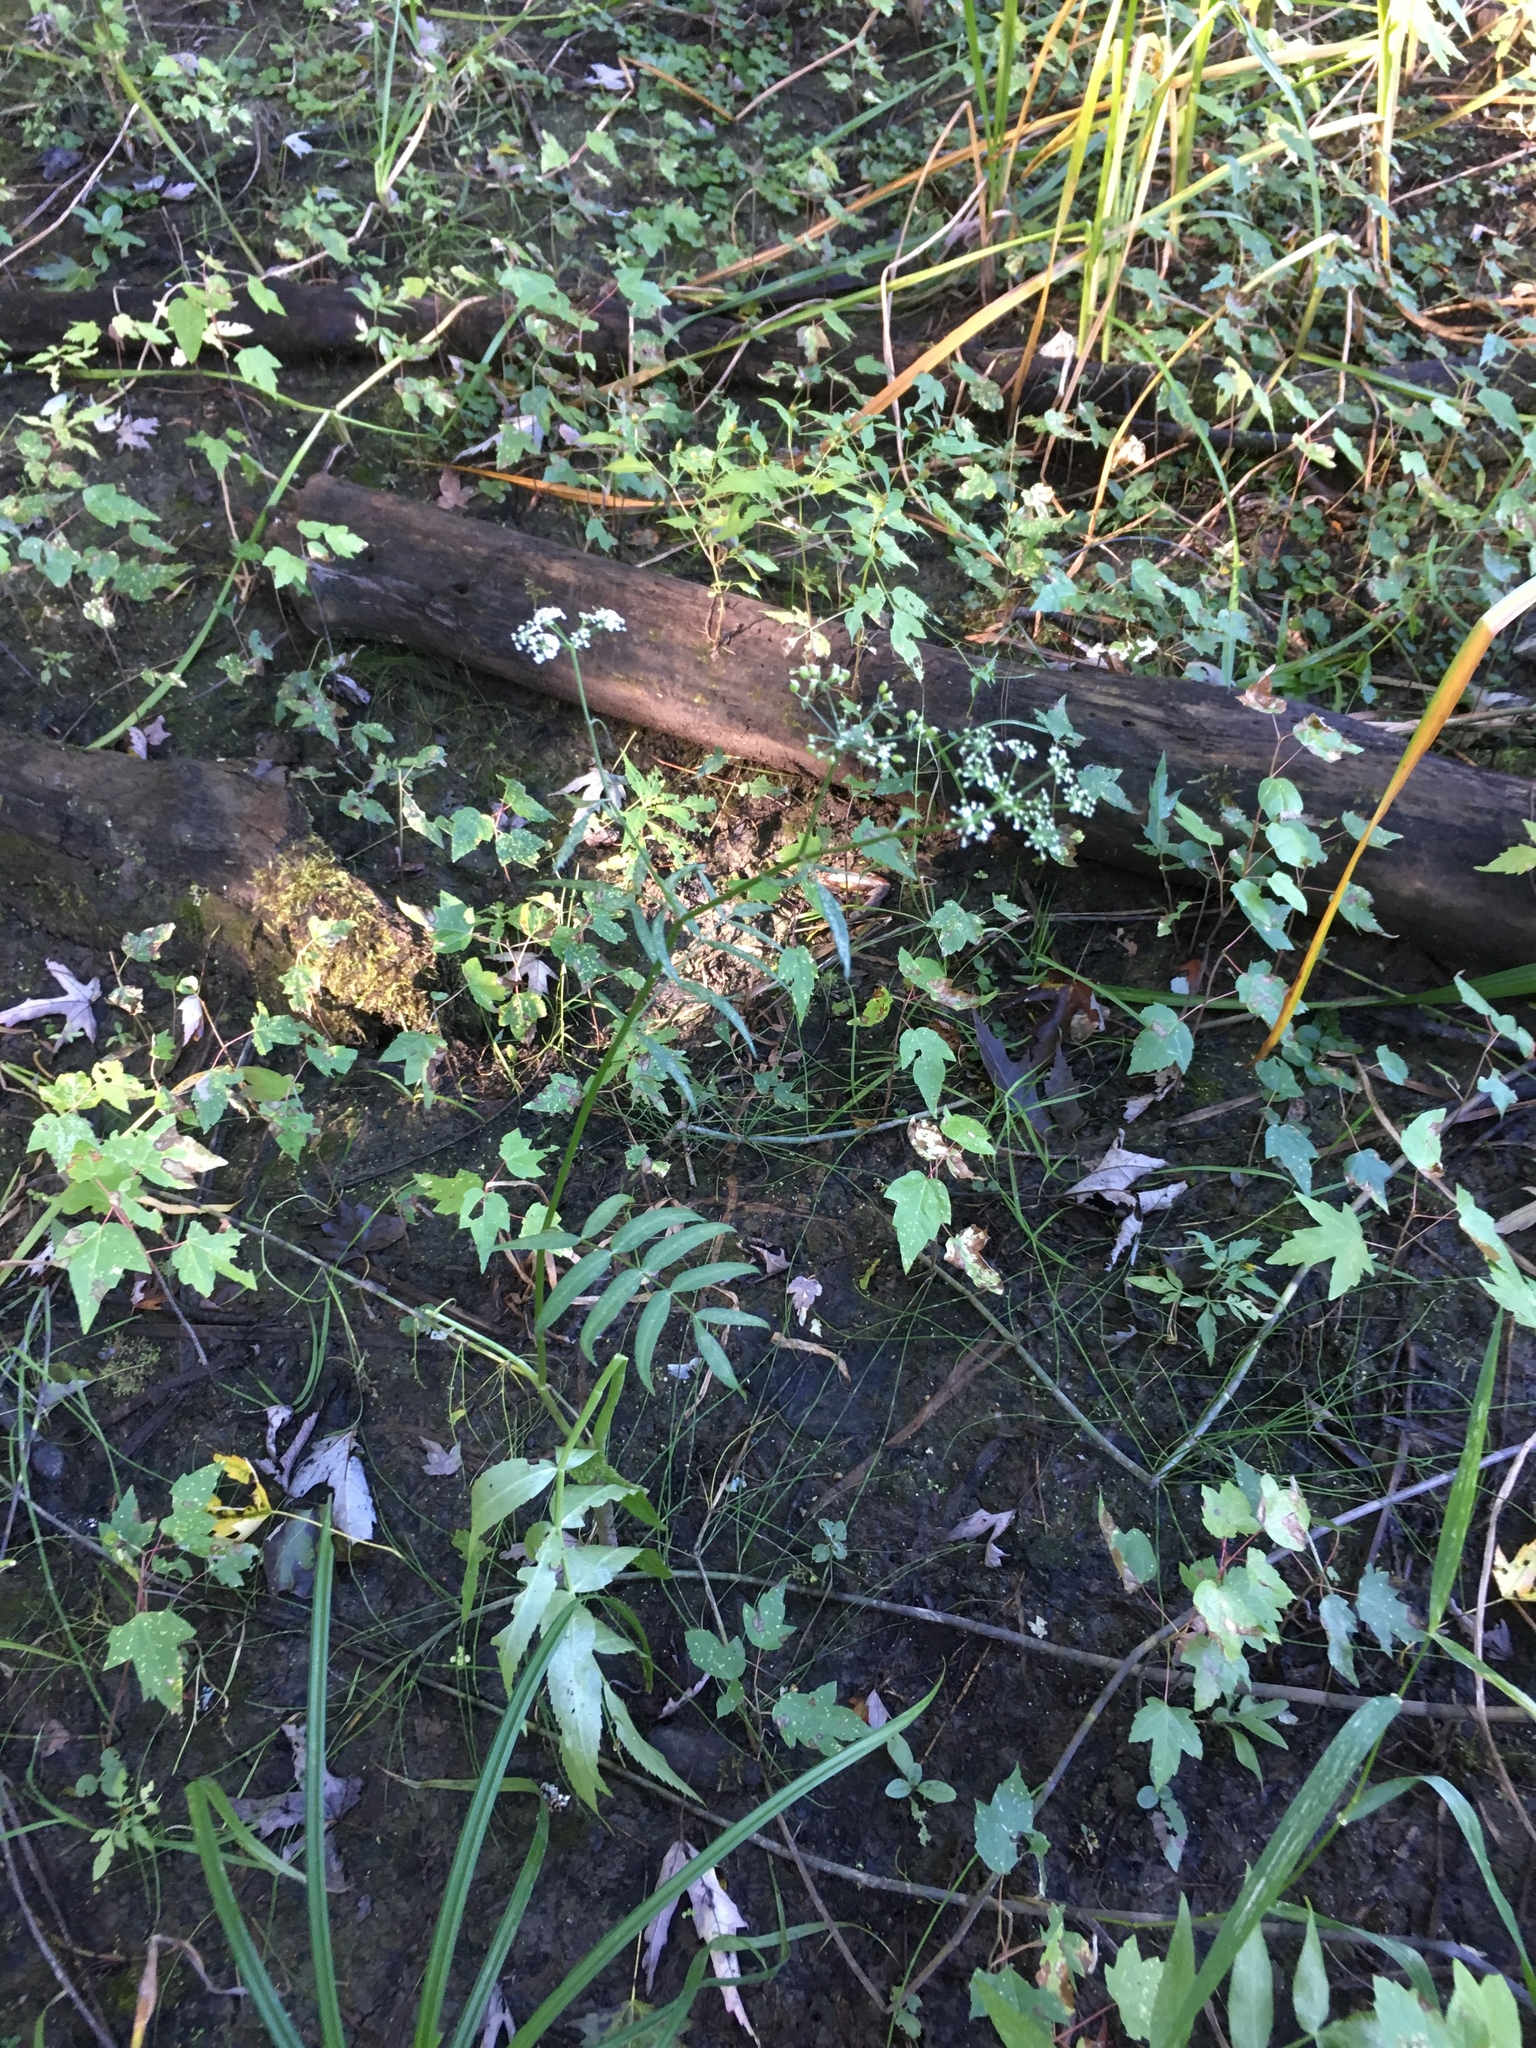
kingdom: Plantae
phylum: Tracheophyta
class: Magnoliopsida
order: Apiales
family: Apiaceae
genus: Sium
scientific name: Sium suave
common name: Hemlock water-parsnip
